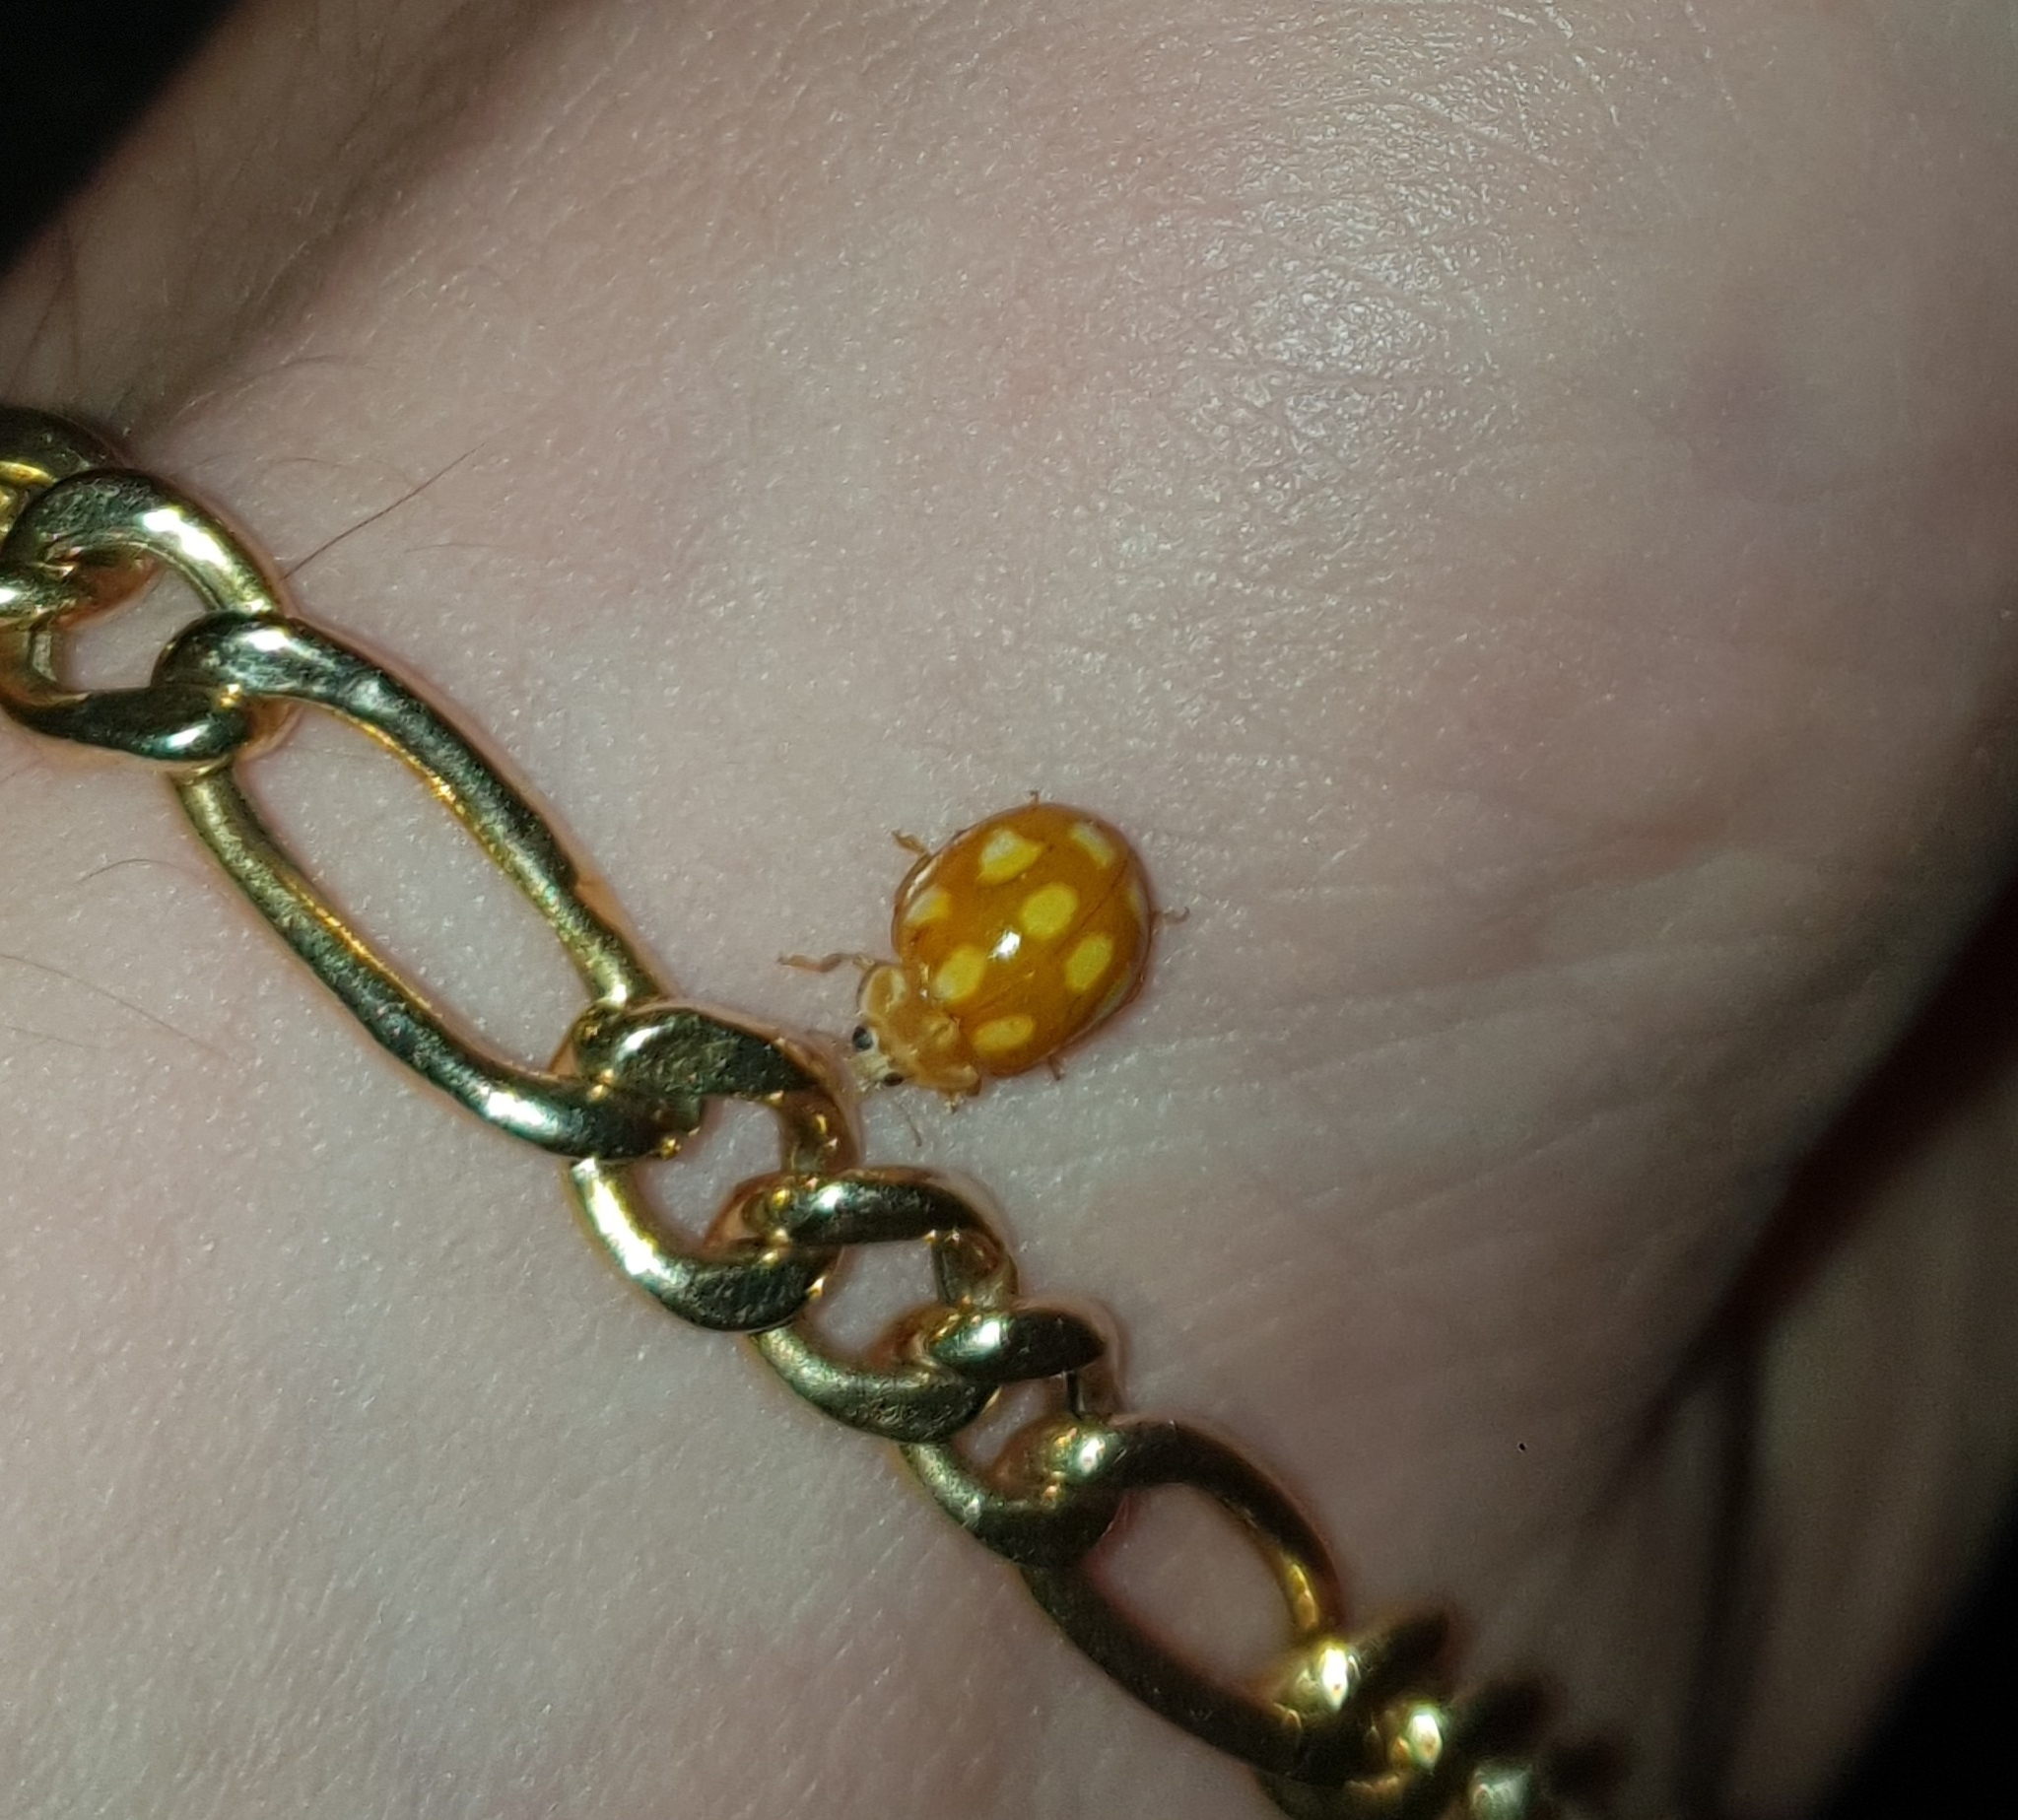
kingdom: Animalia
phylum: Arthropoda
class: Insecta
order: Coleoptera
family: Coccinellidae
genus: Calvia
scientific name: Calvia decemguttata
